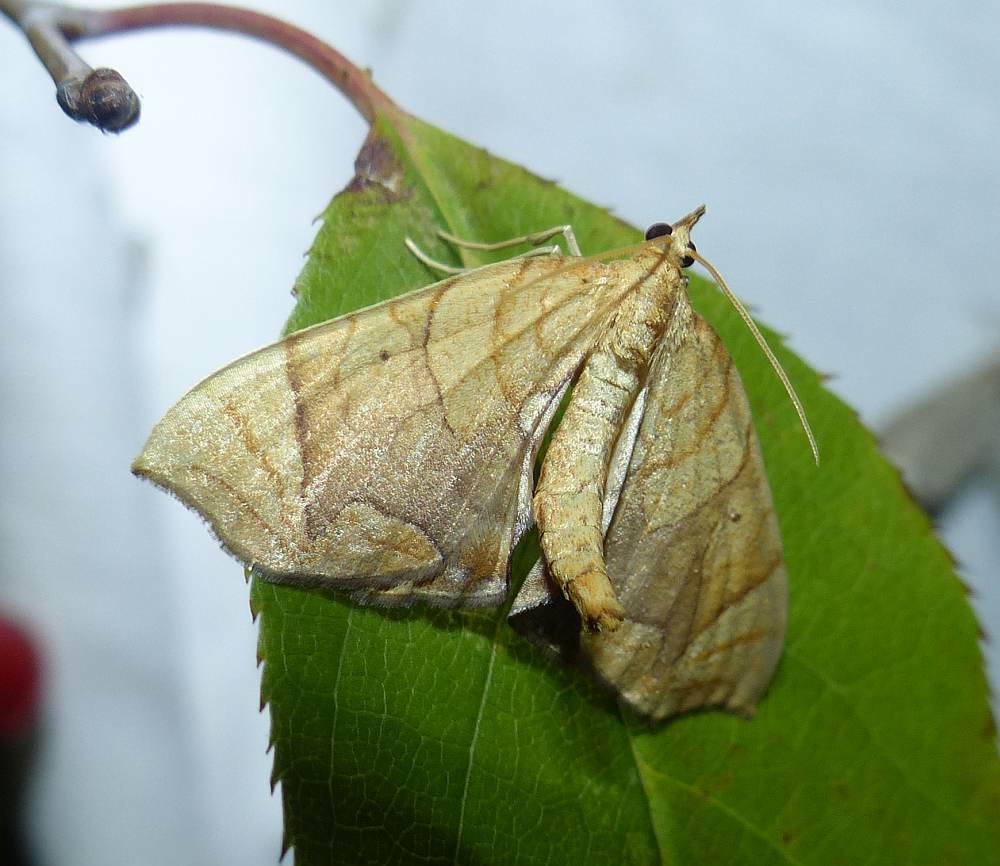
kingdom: Animalia
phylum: Arthropoda
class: Insecta
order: Lepidoptera
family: Geometridae
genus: Eulithis
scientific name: Eulithis
